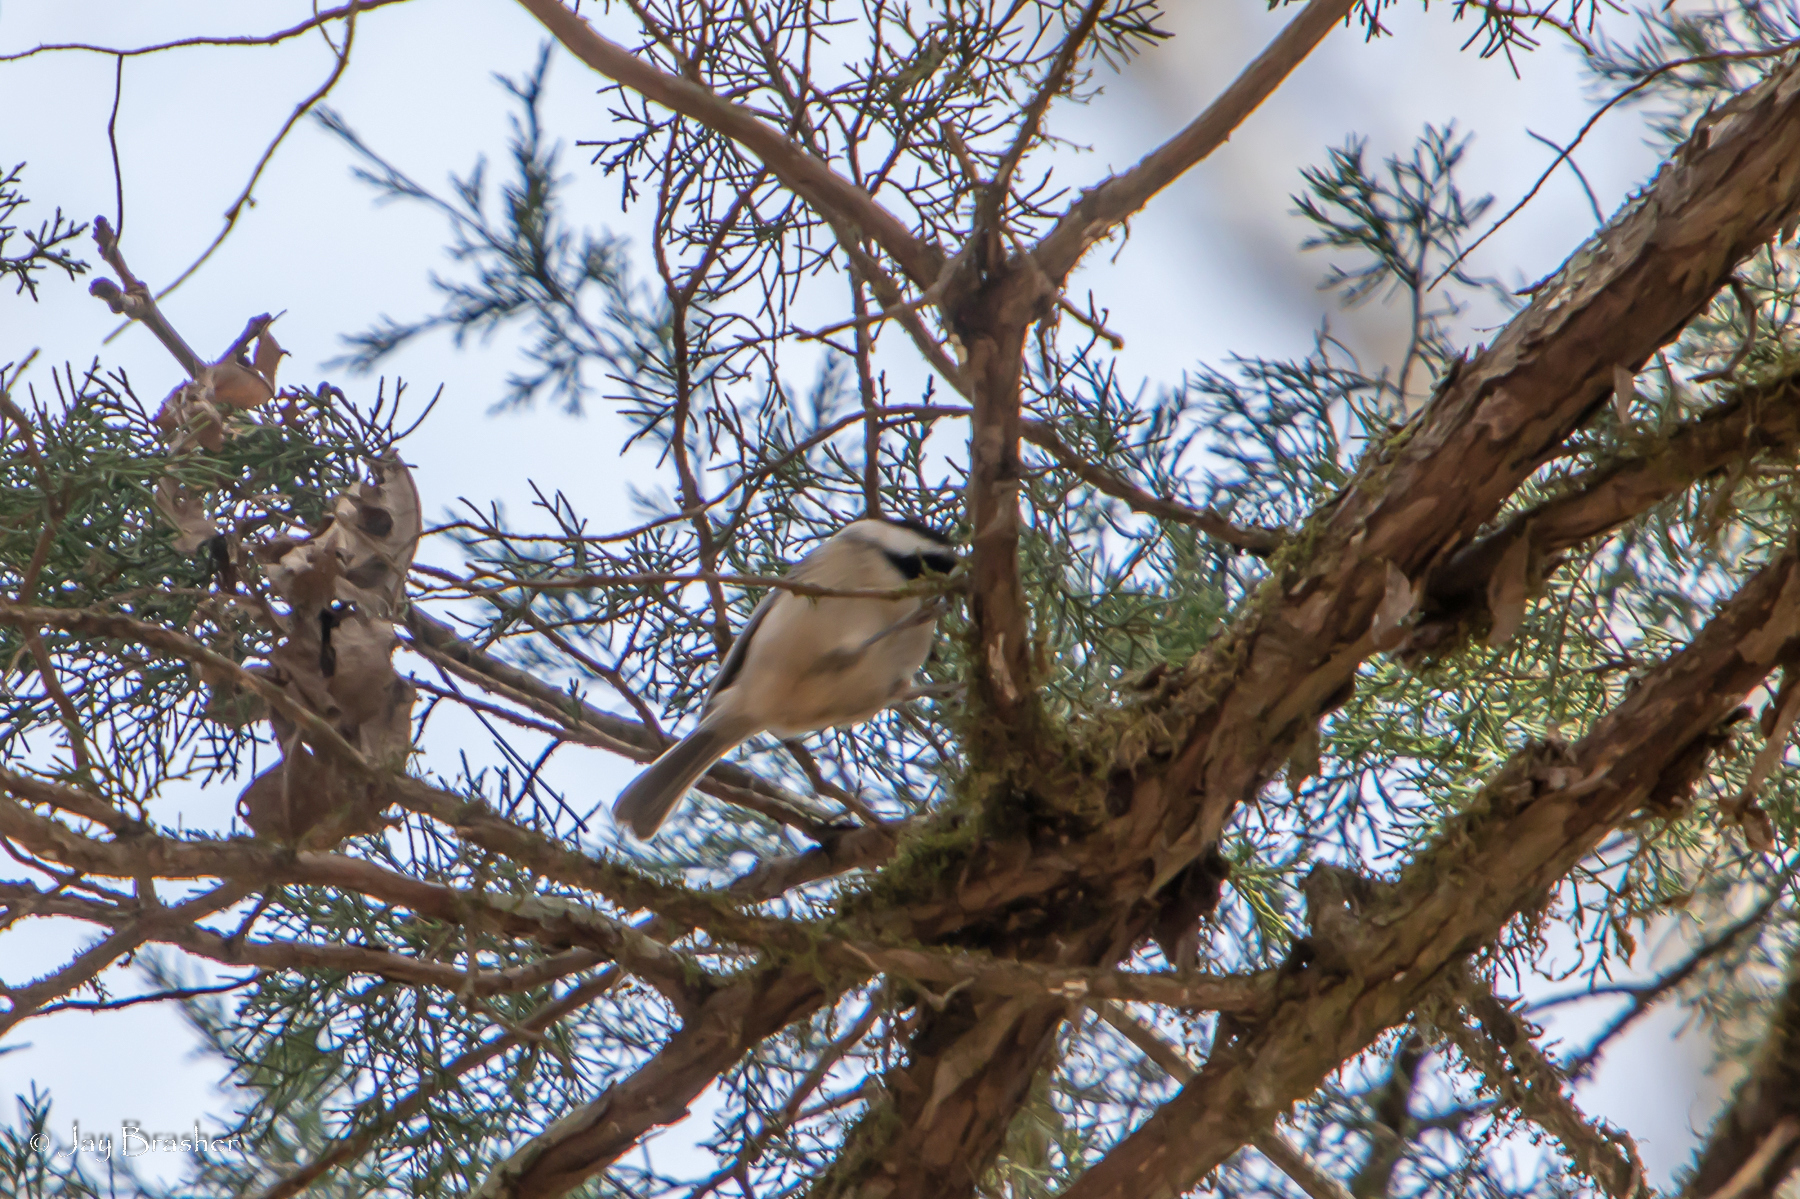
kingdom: Animalia
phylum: Chordata
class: Aves
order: Passeriformes
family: Paridae
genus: Poecile
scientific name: Poecile carolinensis
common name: Carolina chickadee
